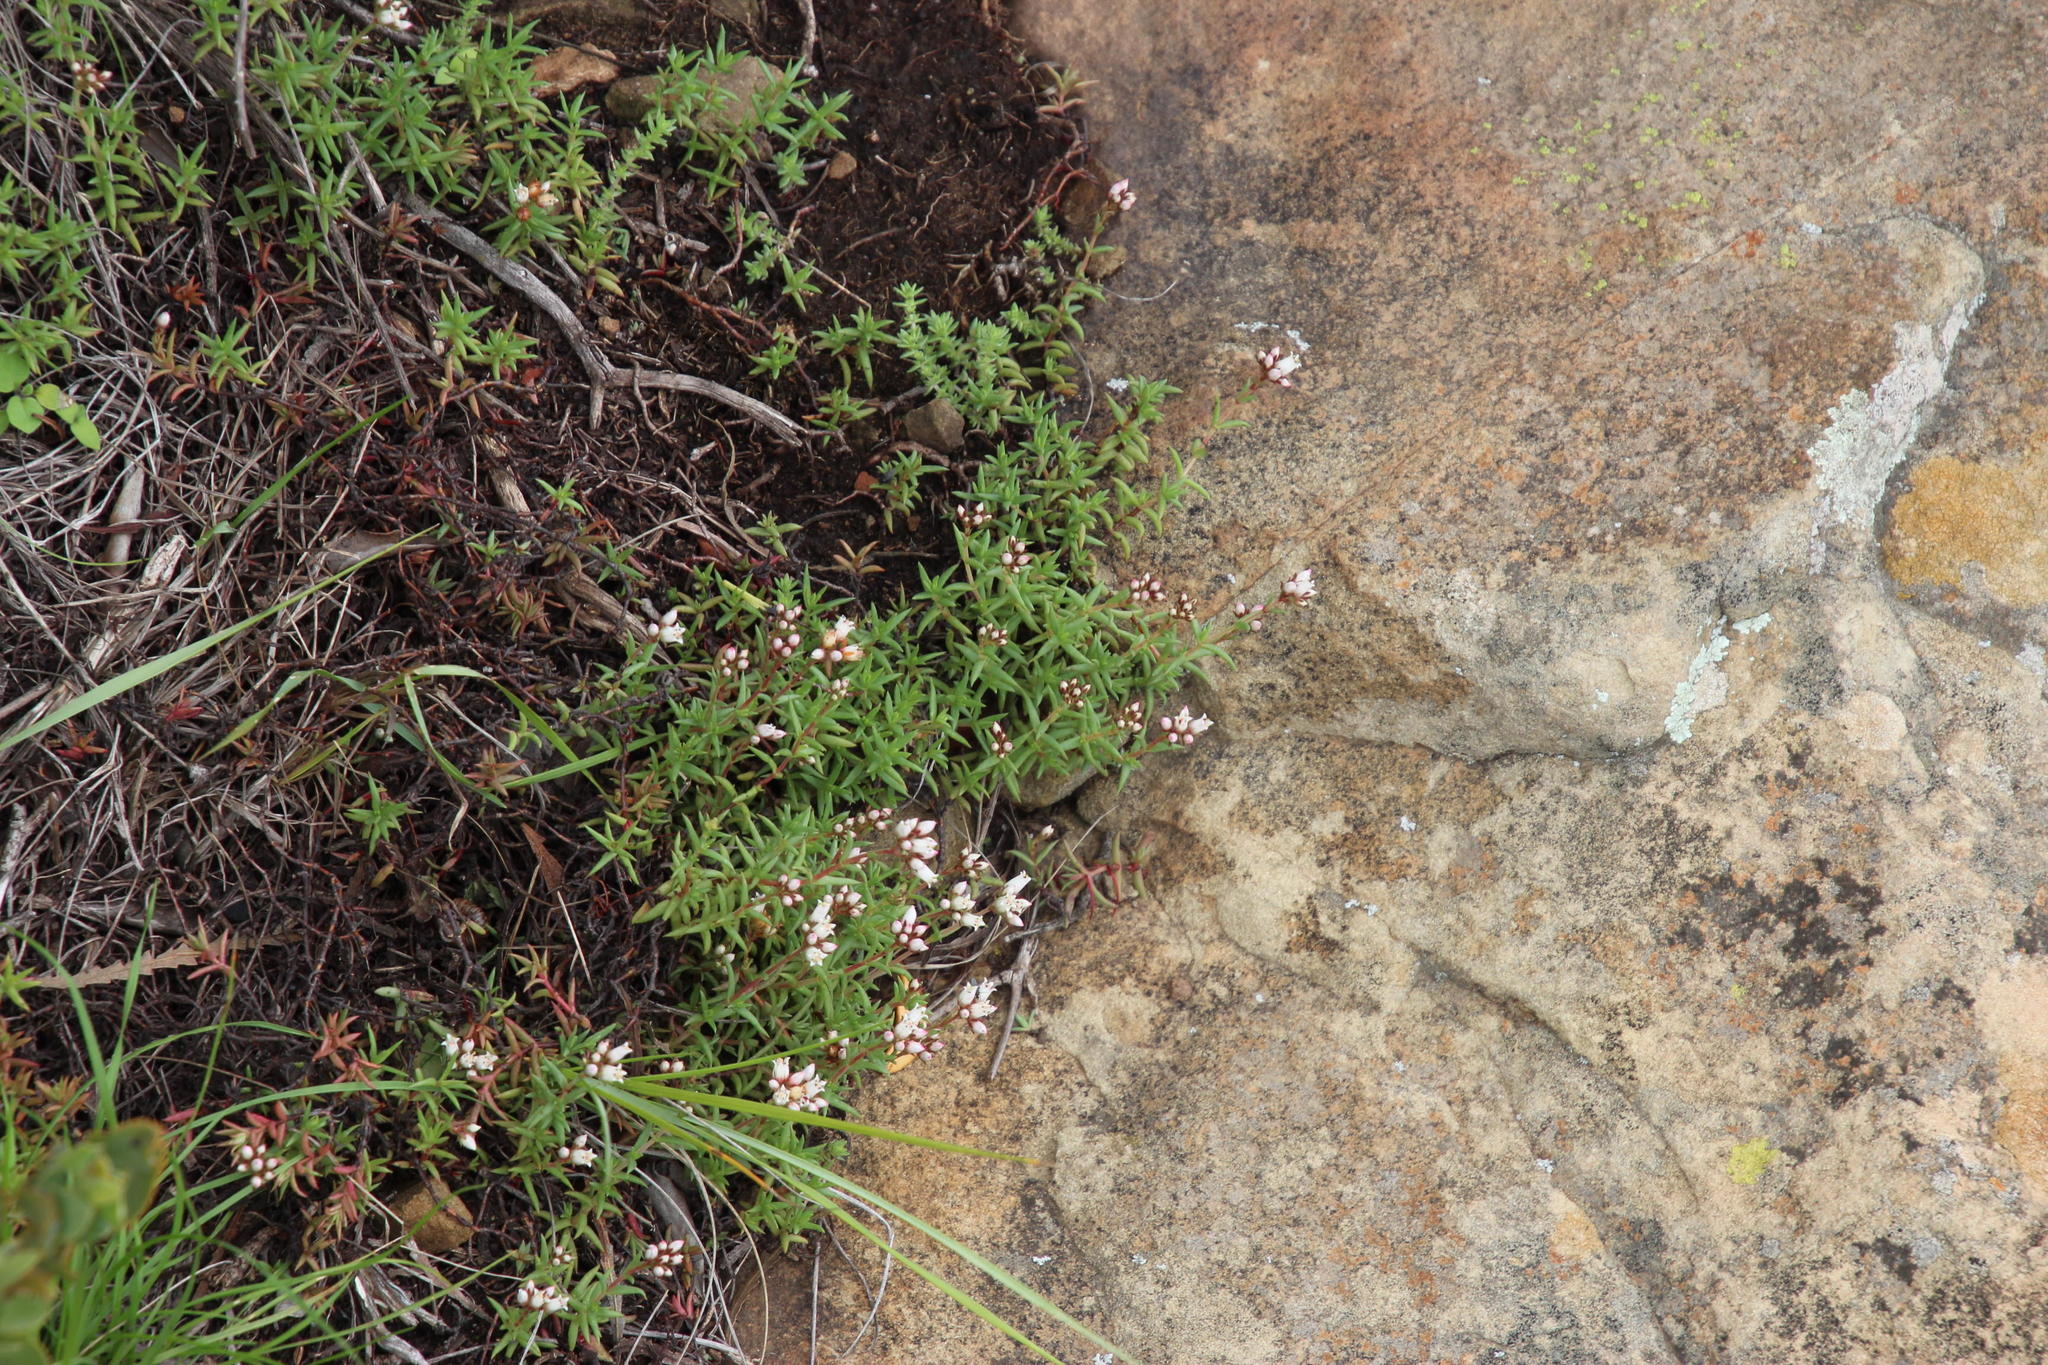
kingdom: Plantae
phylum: Tracheophyta
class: Magnoliopsida
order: Saxifragales
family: Crassulaceae
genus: Crassula
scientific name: Crassula dependens
